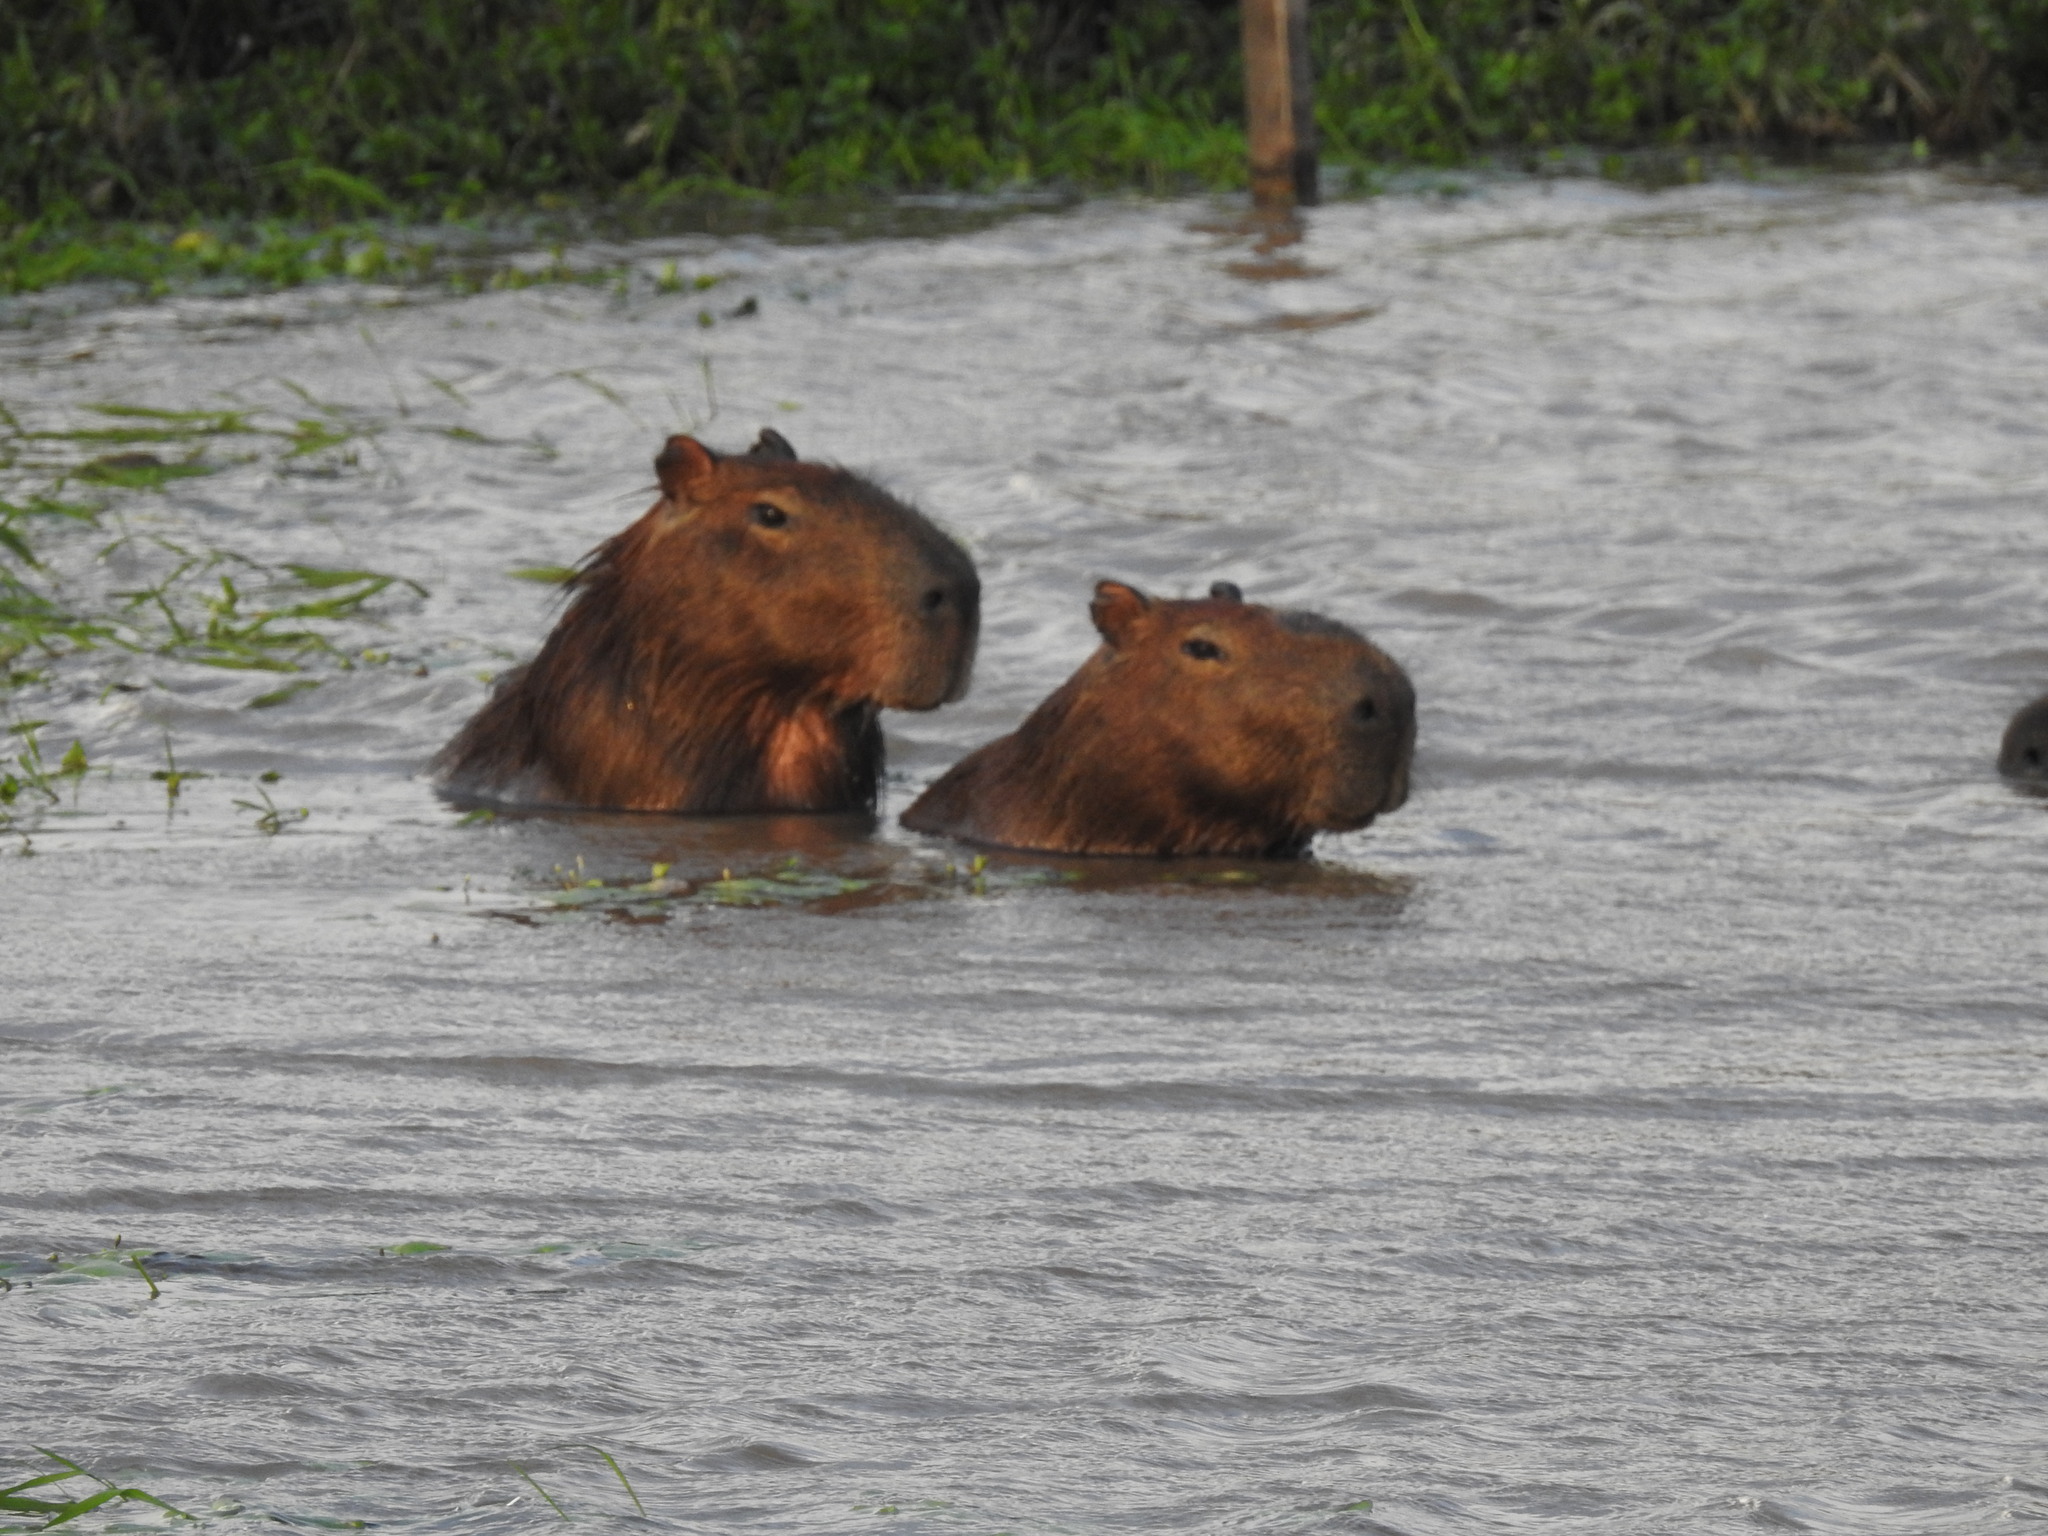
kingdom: Animalia
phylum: Chordata
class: Mammalia
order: Rodentia
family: Caviidae
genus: Hydrochoerus
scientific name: Hydrochoerus hydrochaeris
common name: Capybara
